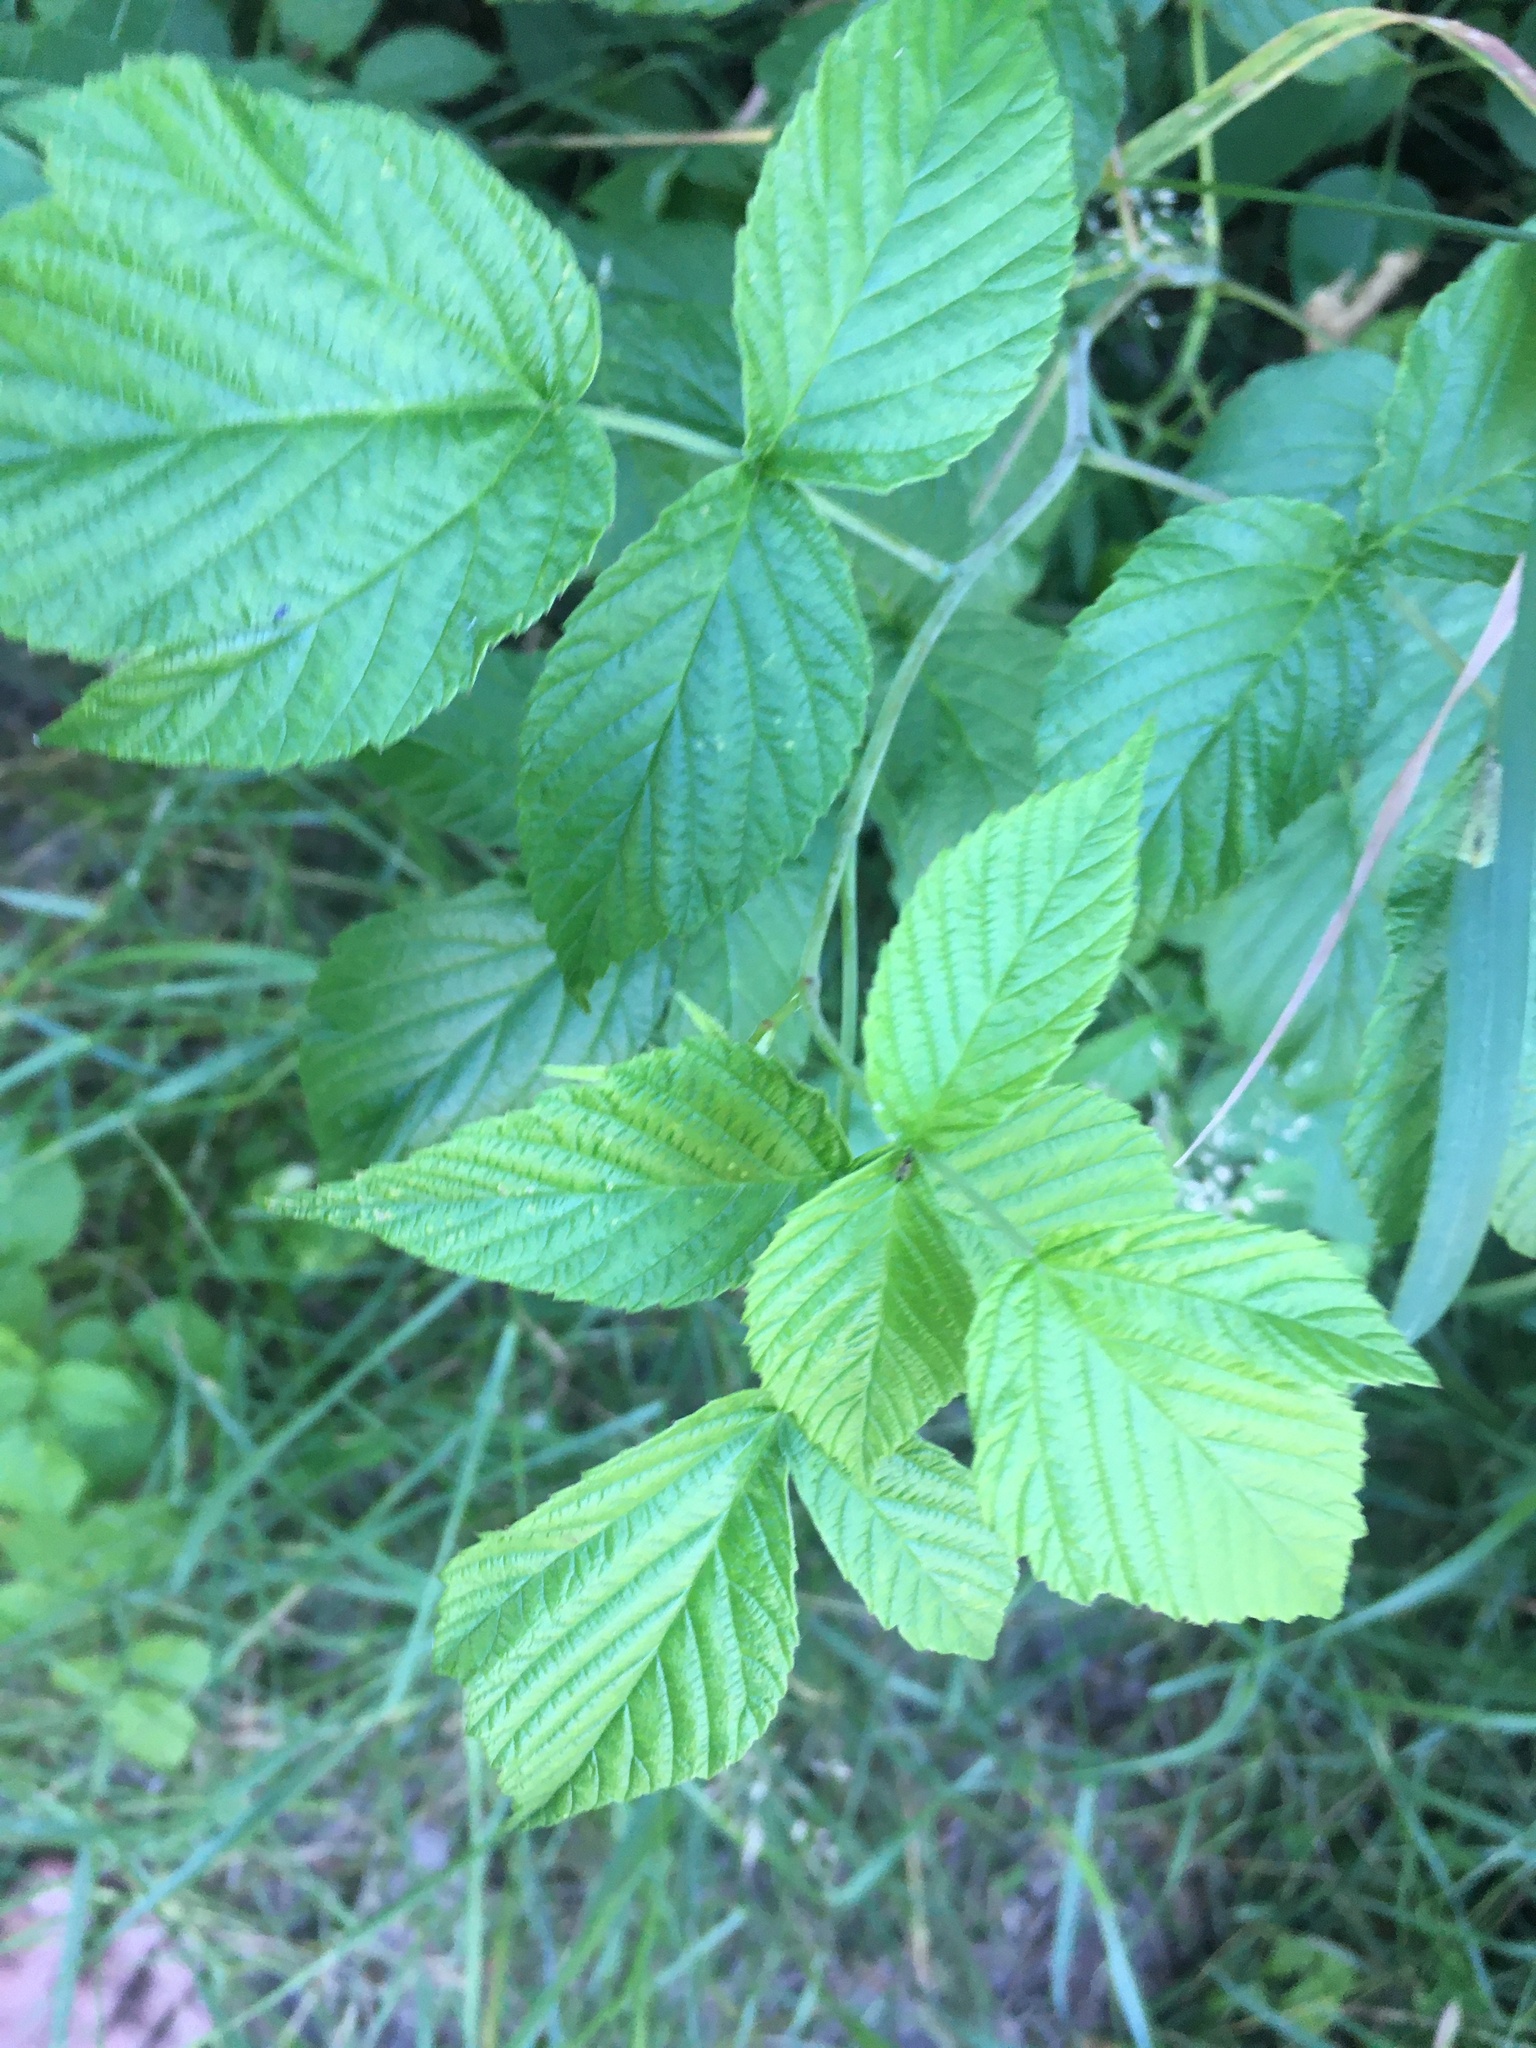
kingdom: Plantae
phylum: Tracheophyta
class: Magnoliopsida
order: Rosales
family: Rosaceae
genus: Rubus
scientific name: Rubus idaeus
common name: Raspberry
